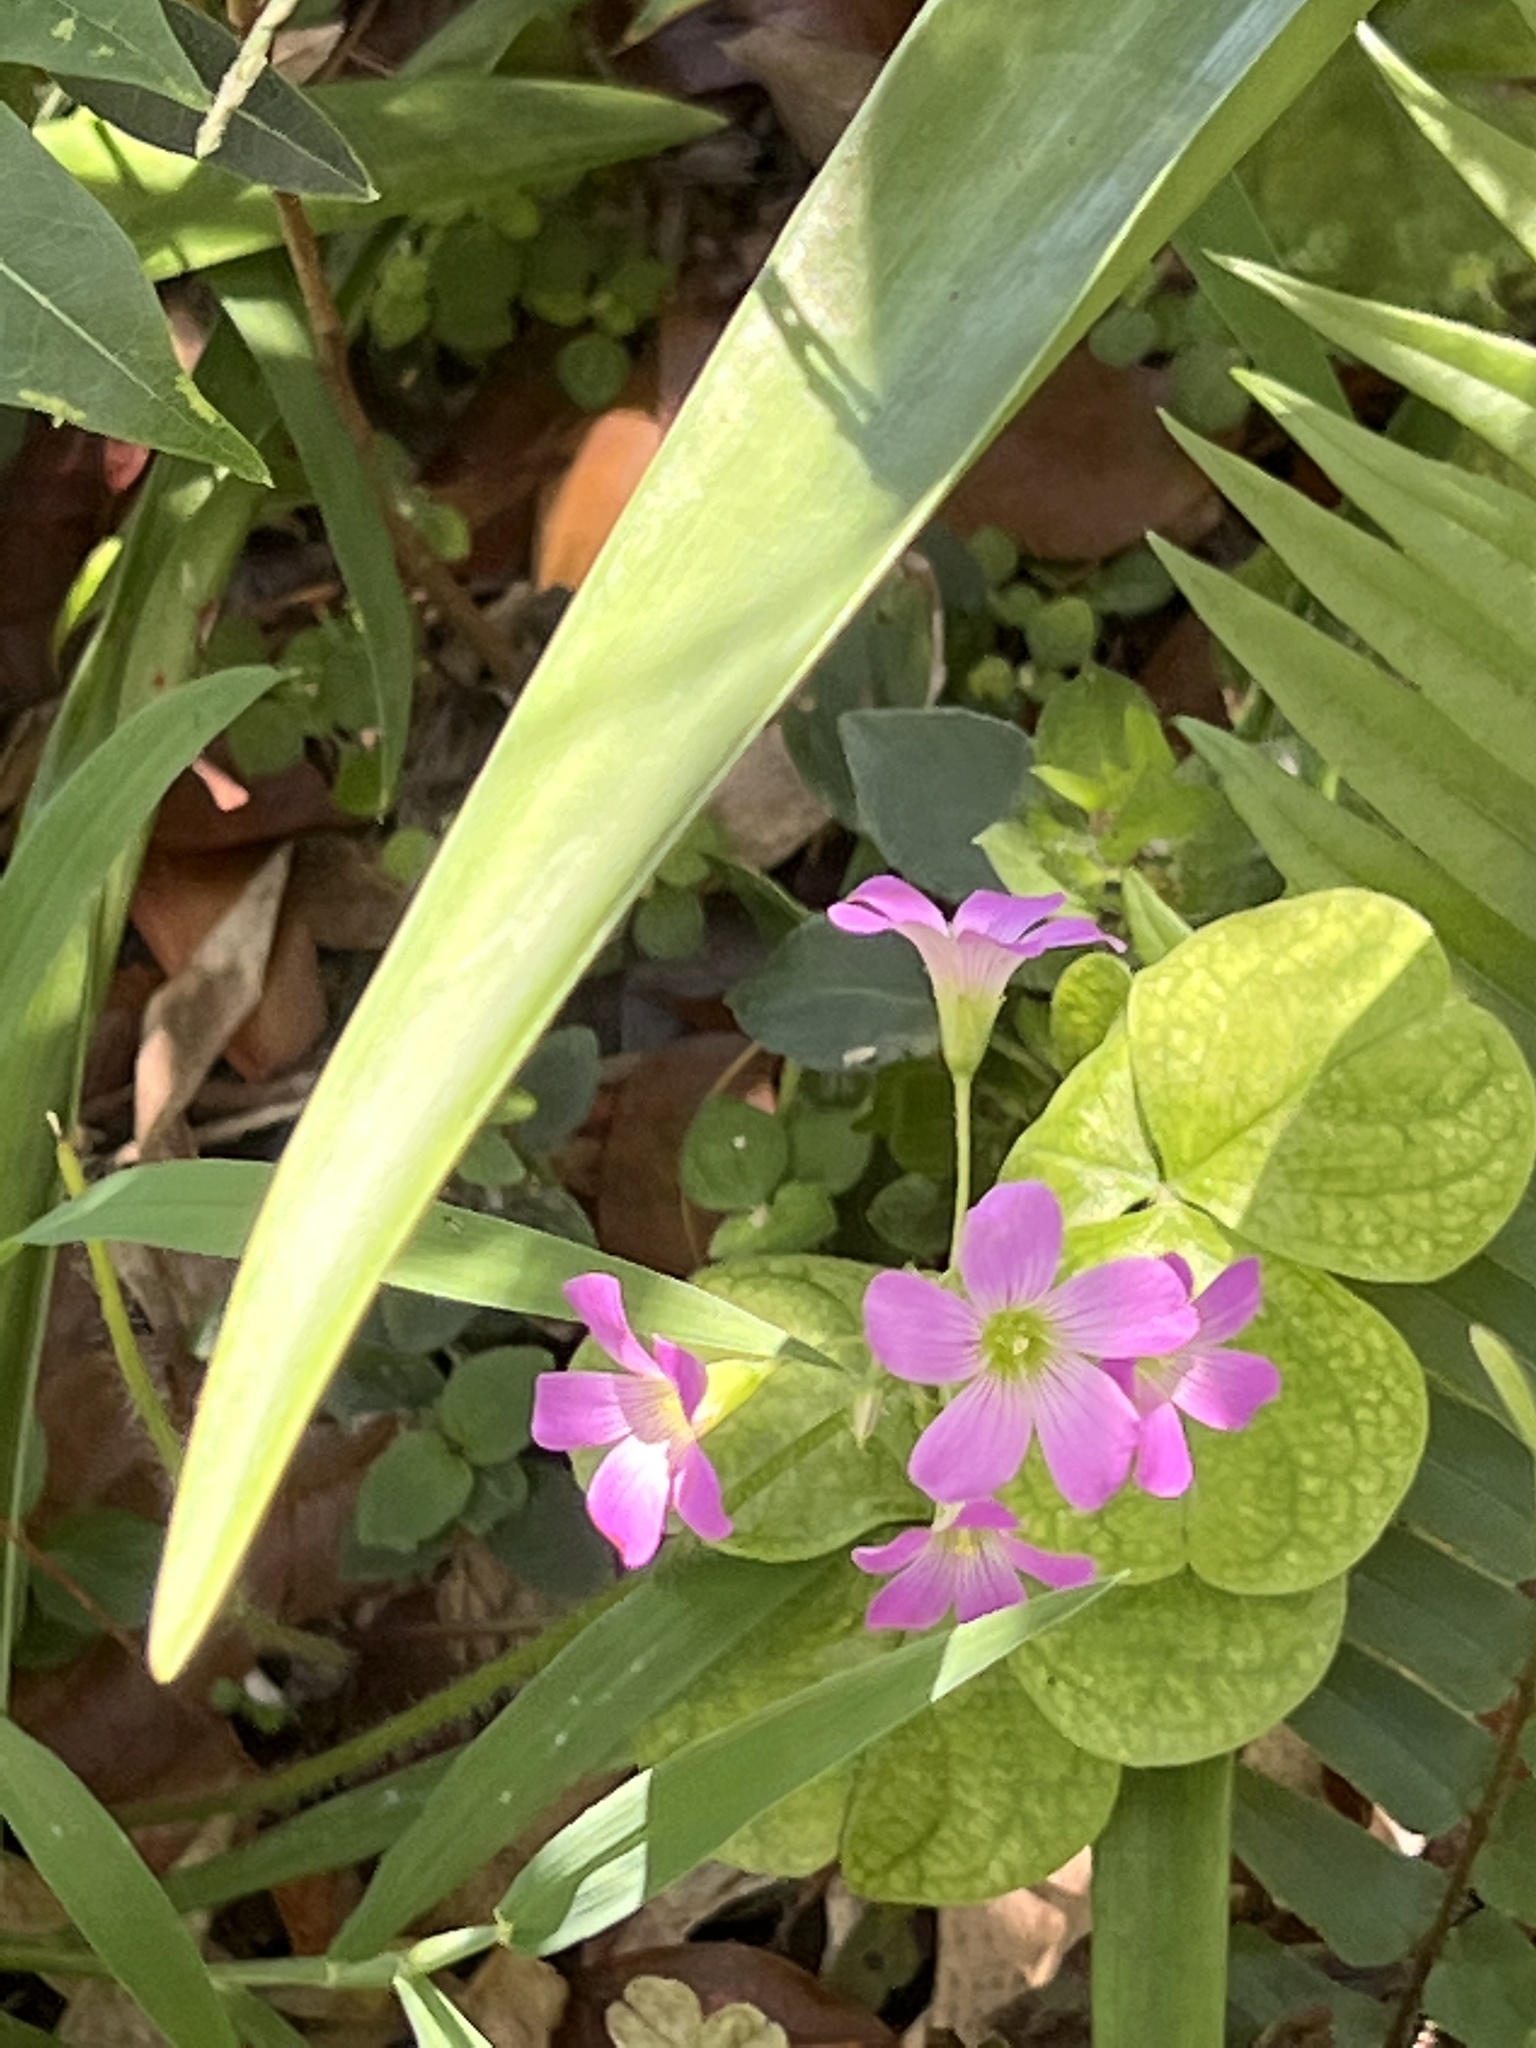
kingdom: Plantae
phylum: Tracheophyta
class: Magnoliopsida
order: Oxalidales
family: Oxalidaceae
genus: Oxalis
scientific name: Oxalis debilis
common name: Large-flowered pink-sorrel
